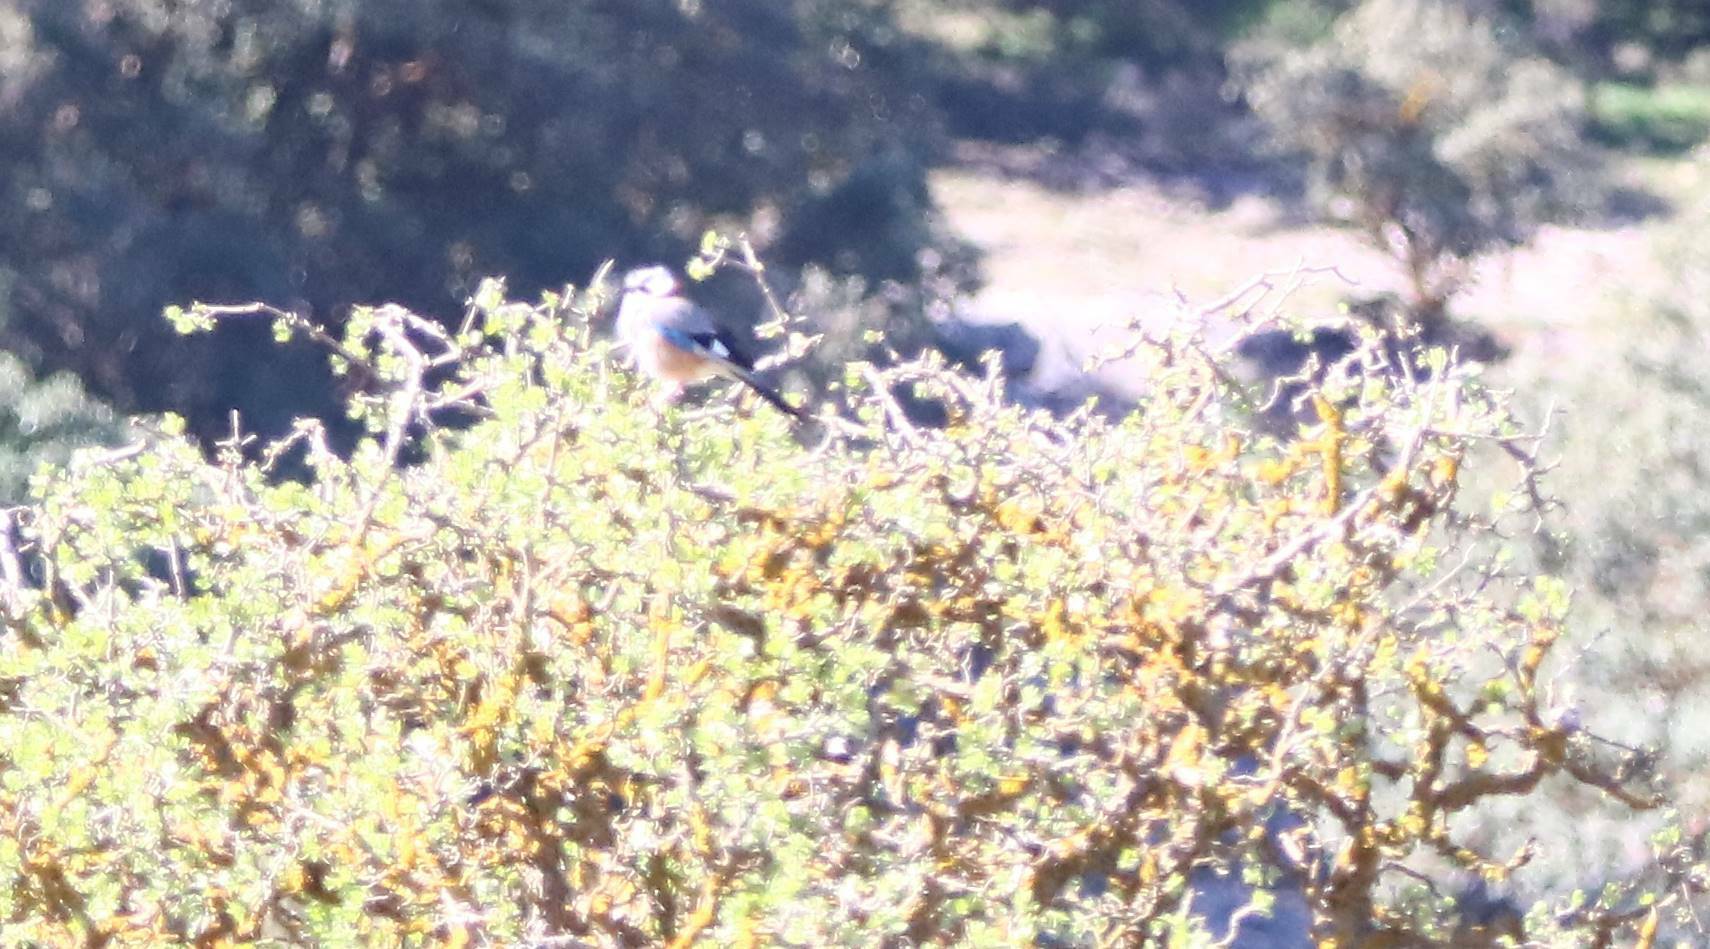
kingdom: Animalia
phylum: Chordata
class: Aves
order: Passeriformes
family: Corvidae
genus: Garrulus
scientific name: Garrulus glandarius
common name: Eurasian jay
